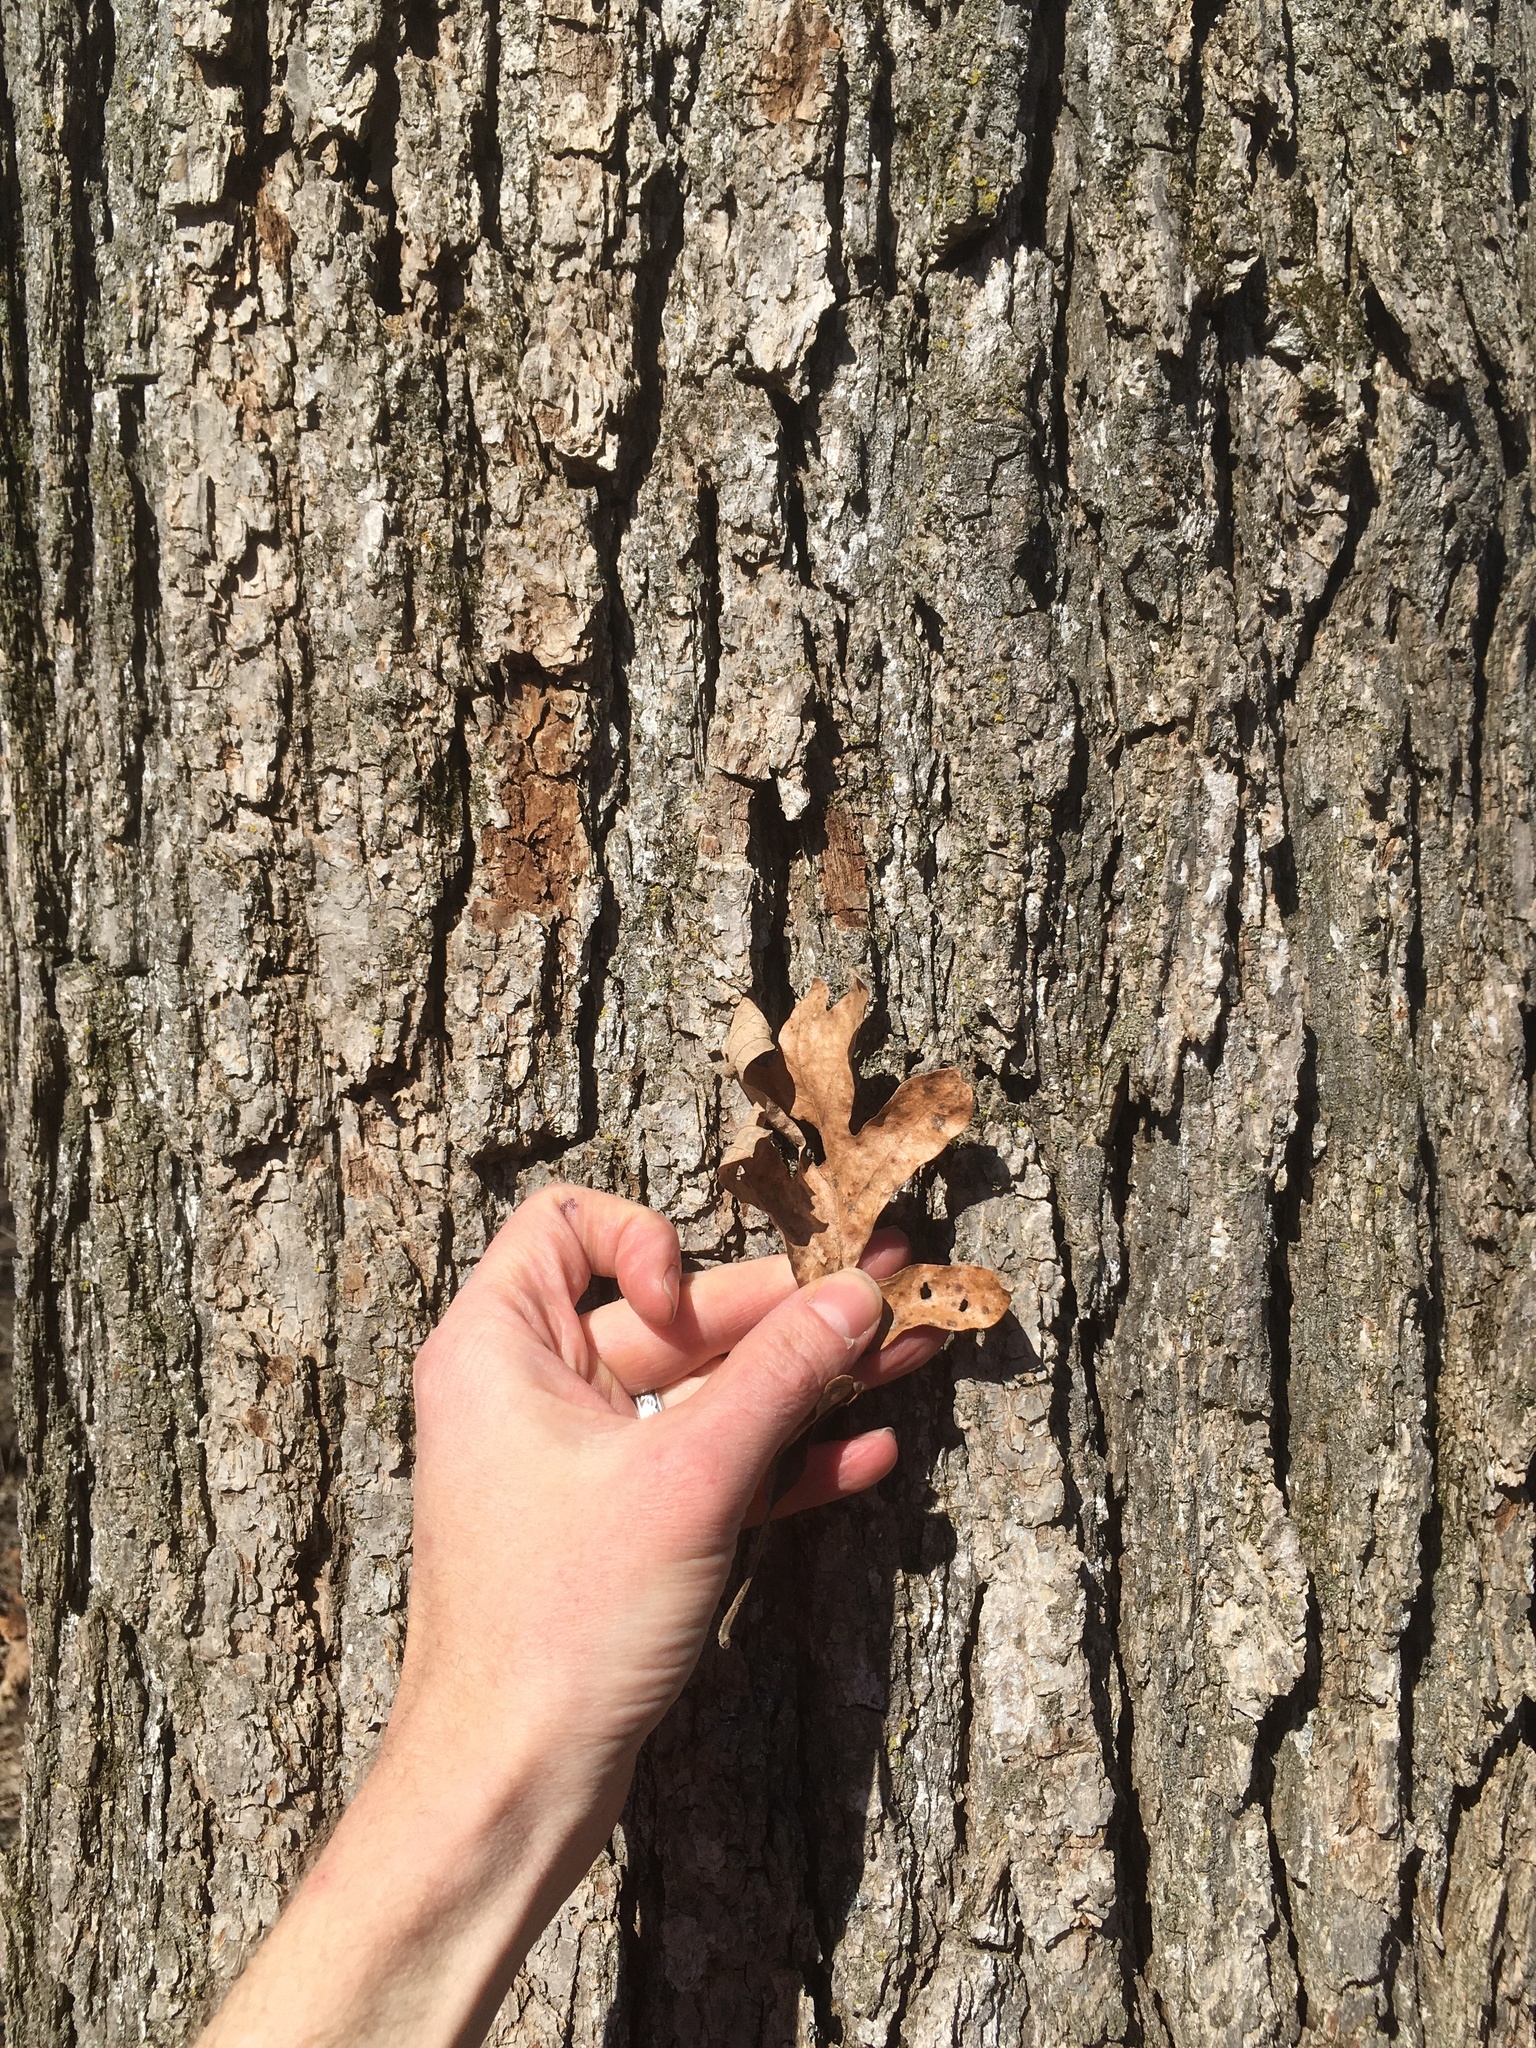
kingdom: Plantae
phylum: Tracheophyta
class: Magnoliopsida
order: Fagales
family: Fagaceae
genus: Quercus
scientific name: Quercus alba
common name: White oak
